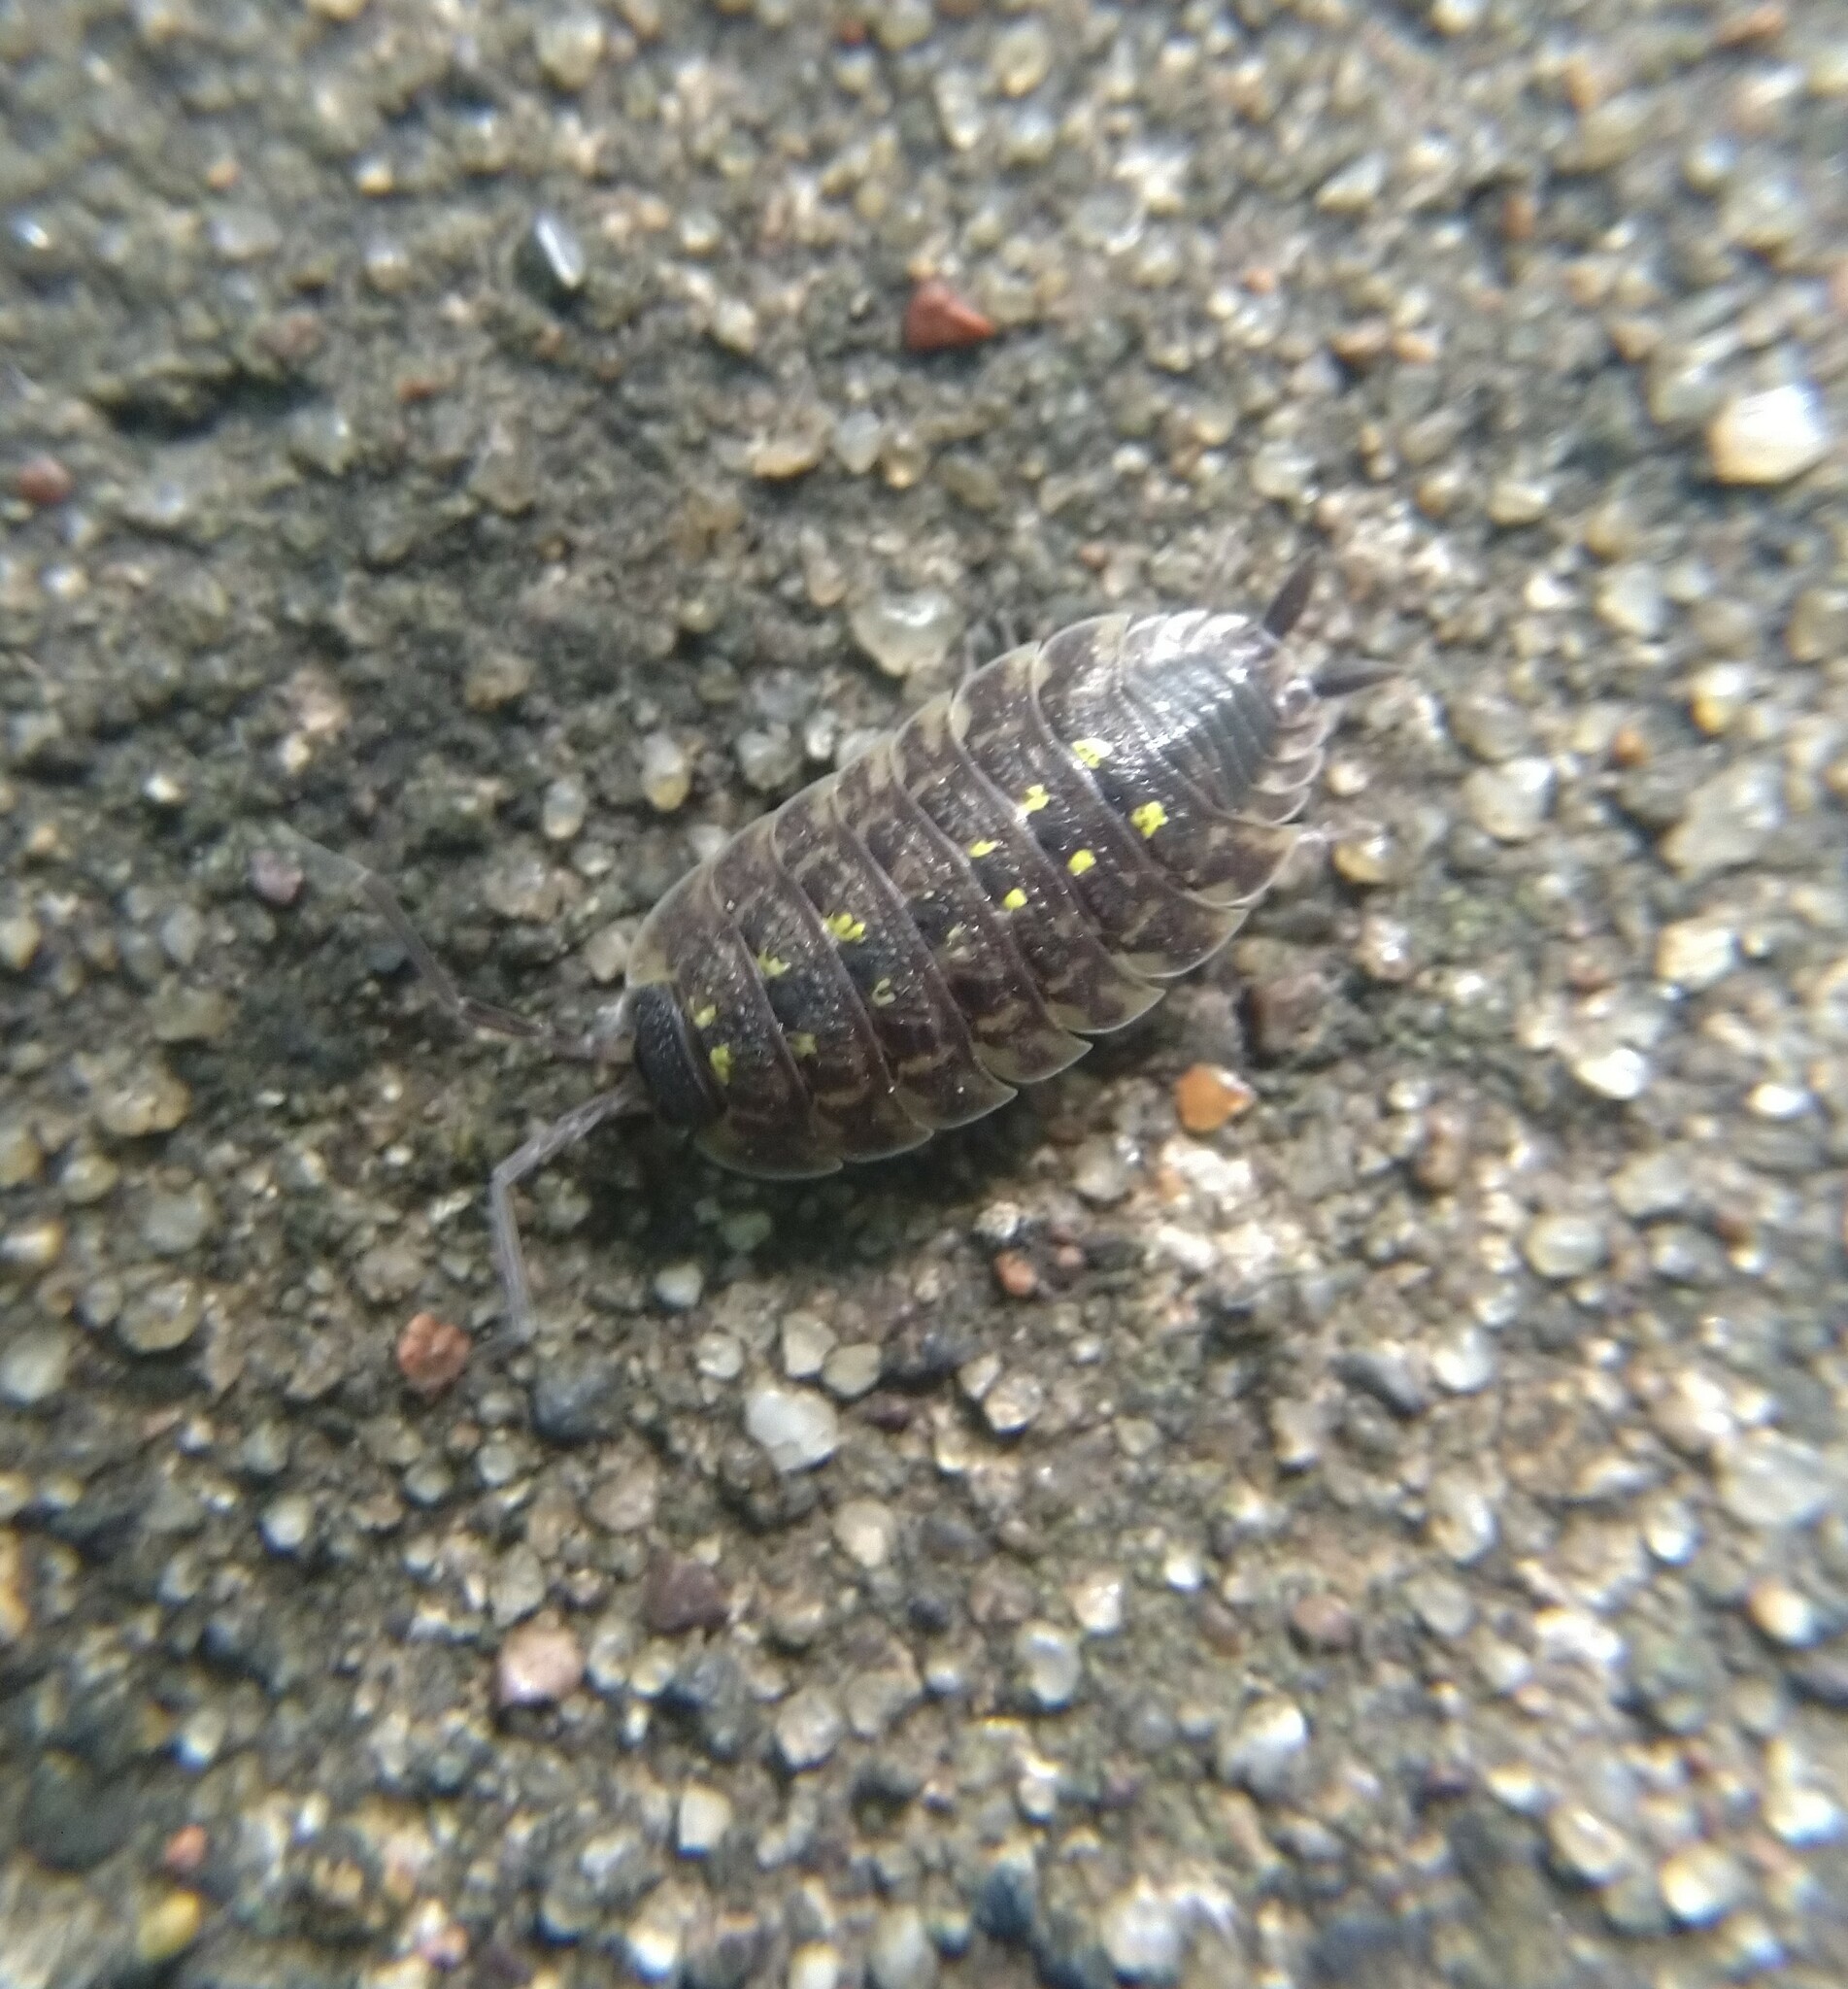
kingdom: Animalia
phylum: Arthropoda
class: Malacostraca
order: Isopoda
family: Porcellionidae
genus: Porcellio
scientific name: Porcellio spinicornis
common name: Painted woodlouse
